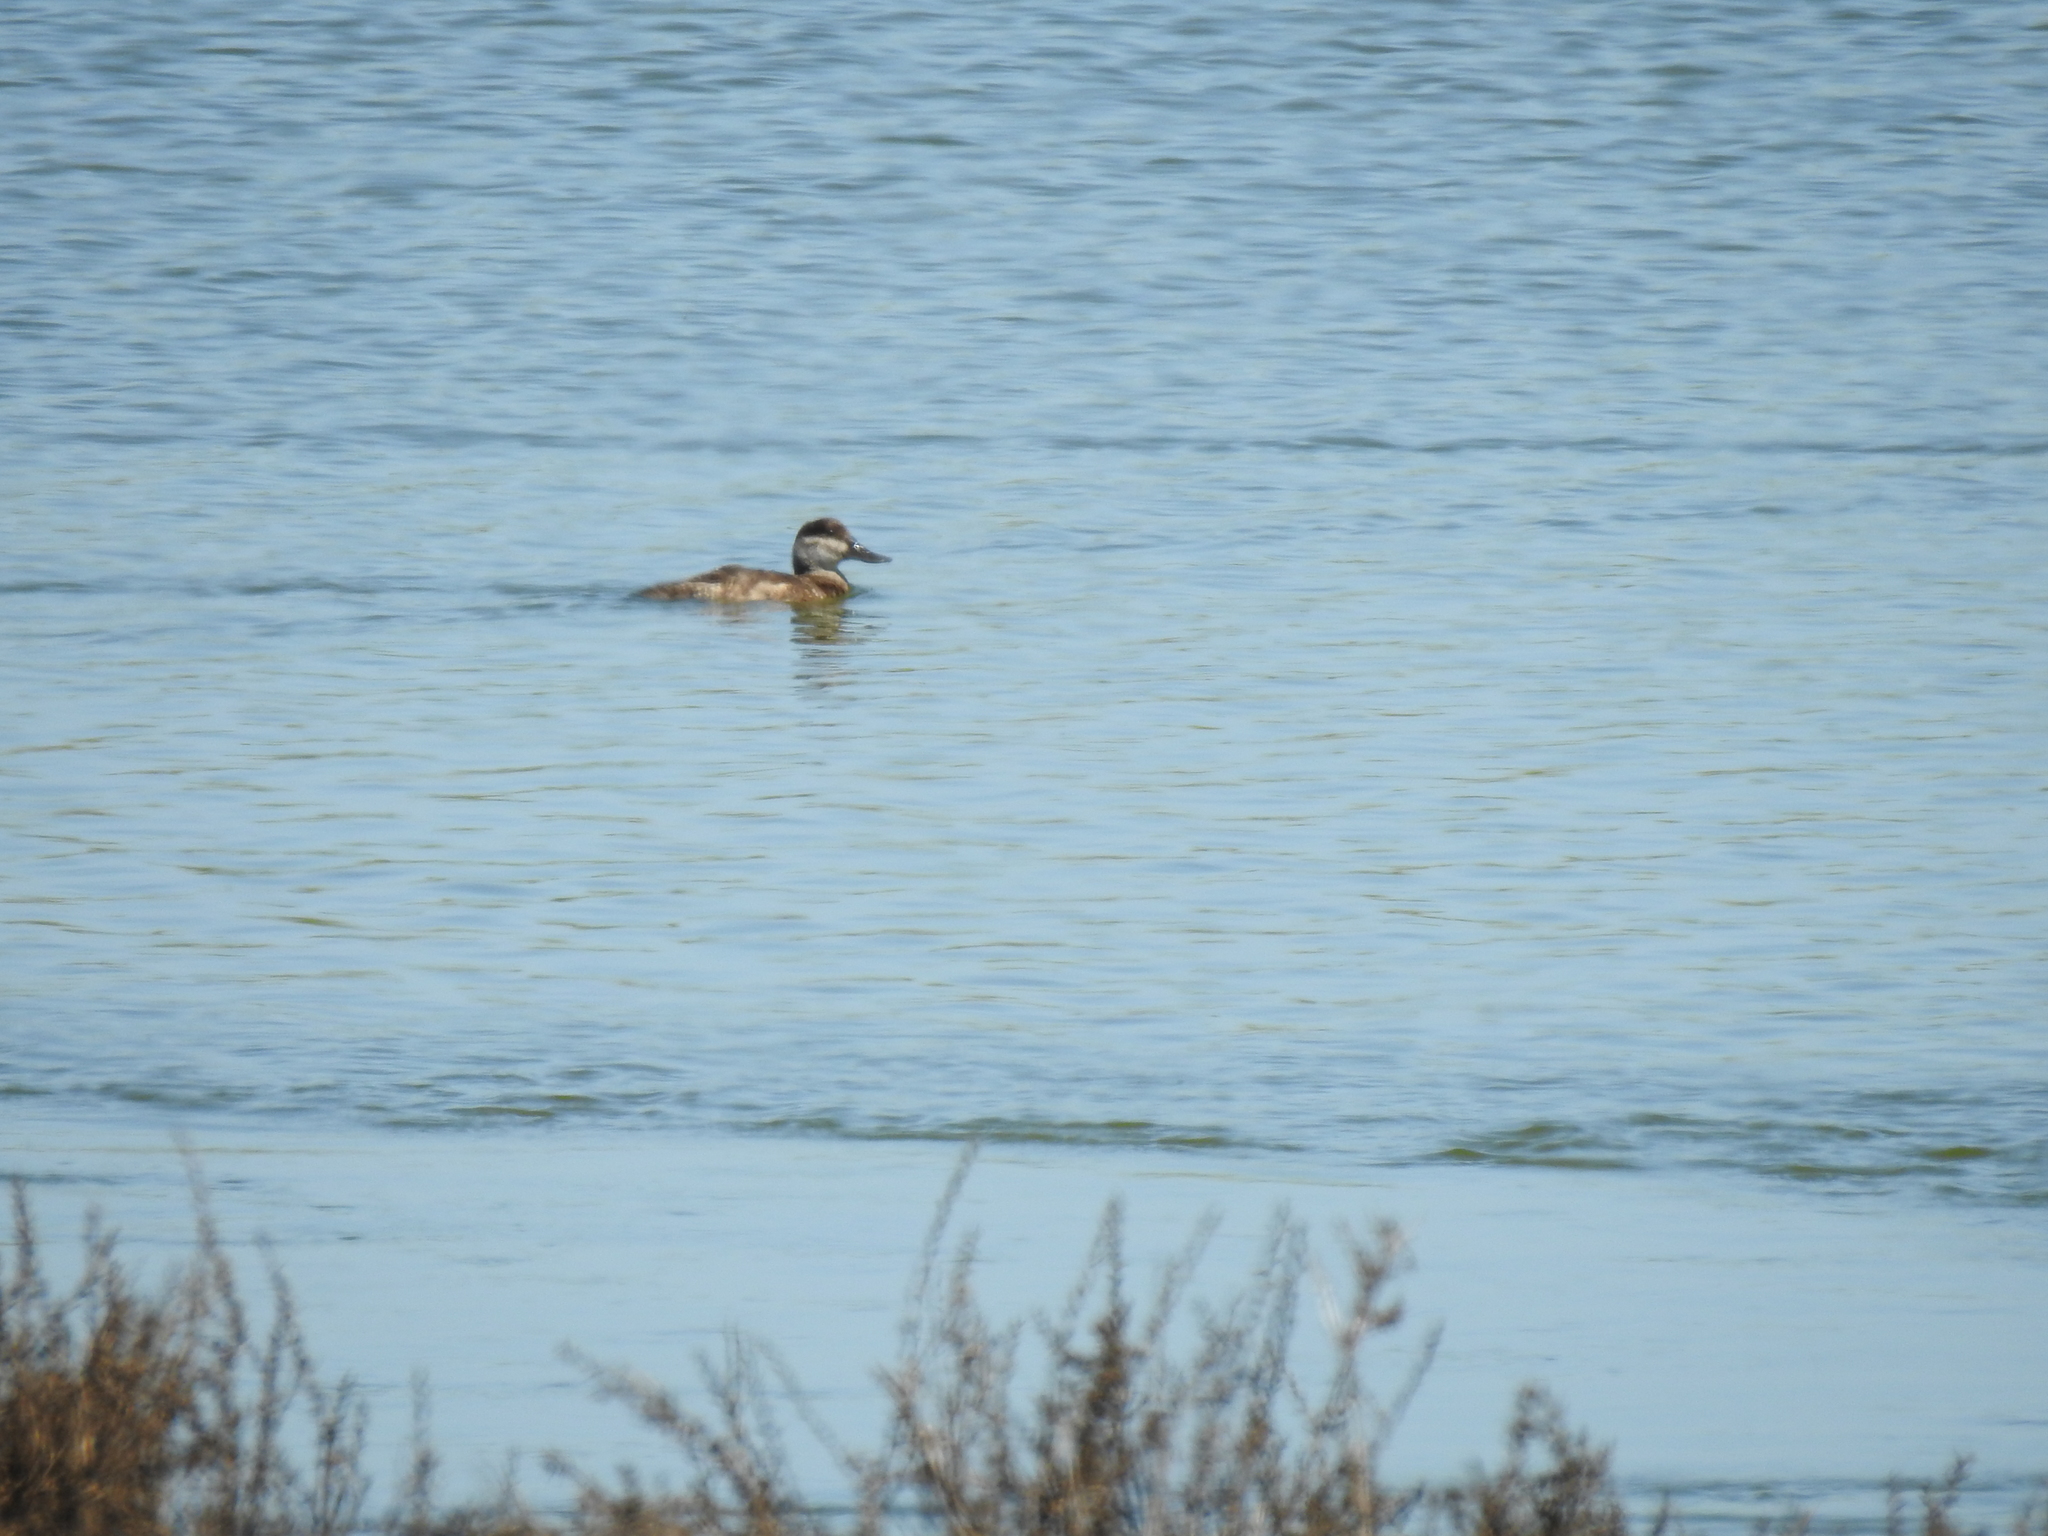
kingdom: Animalia
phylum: Chordata
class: Aves
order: Anseriformes
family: Anatidae
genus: Oxyura
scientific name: Oxyura jamaicensis
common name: Ruddy duck
